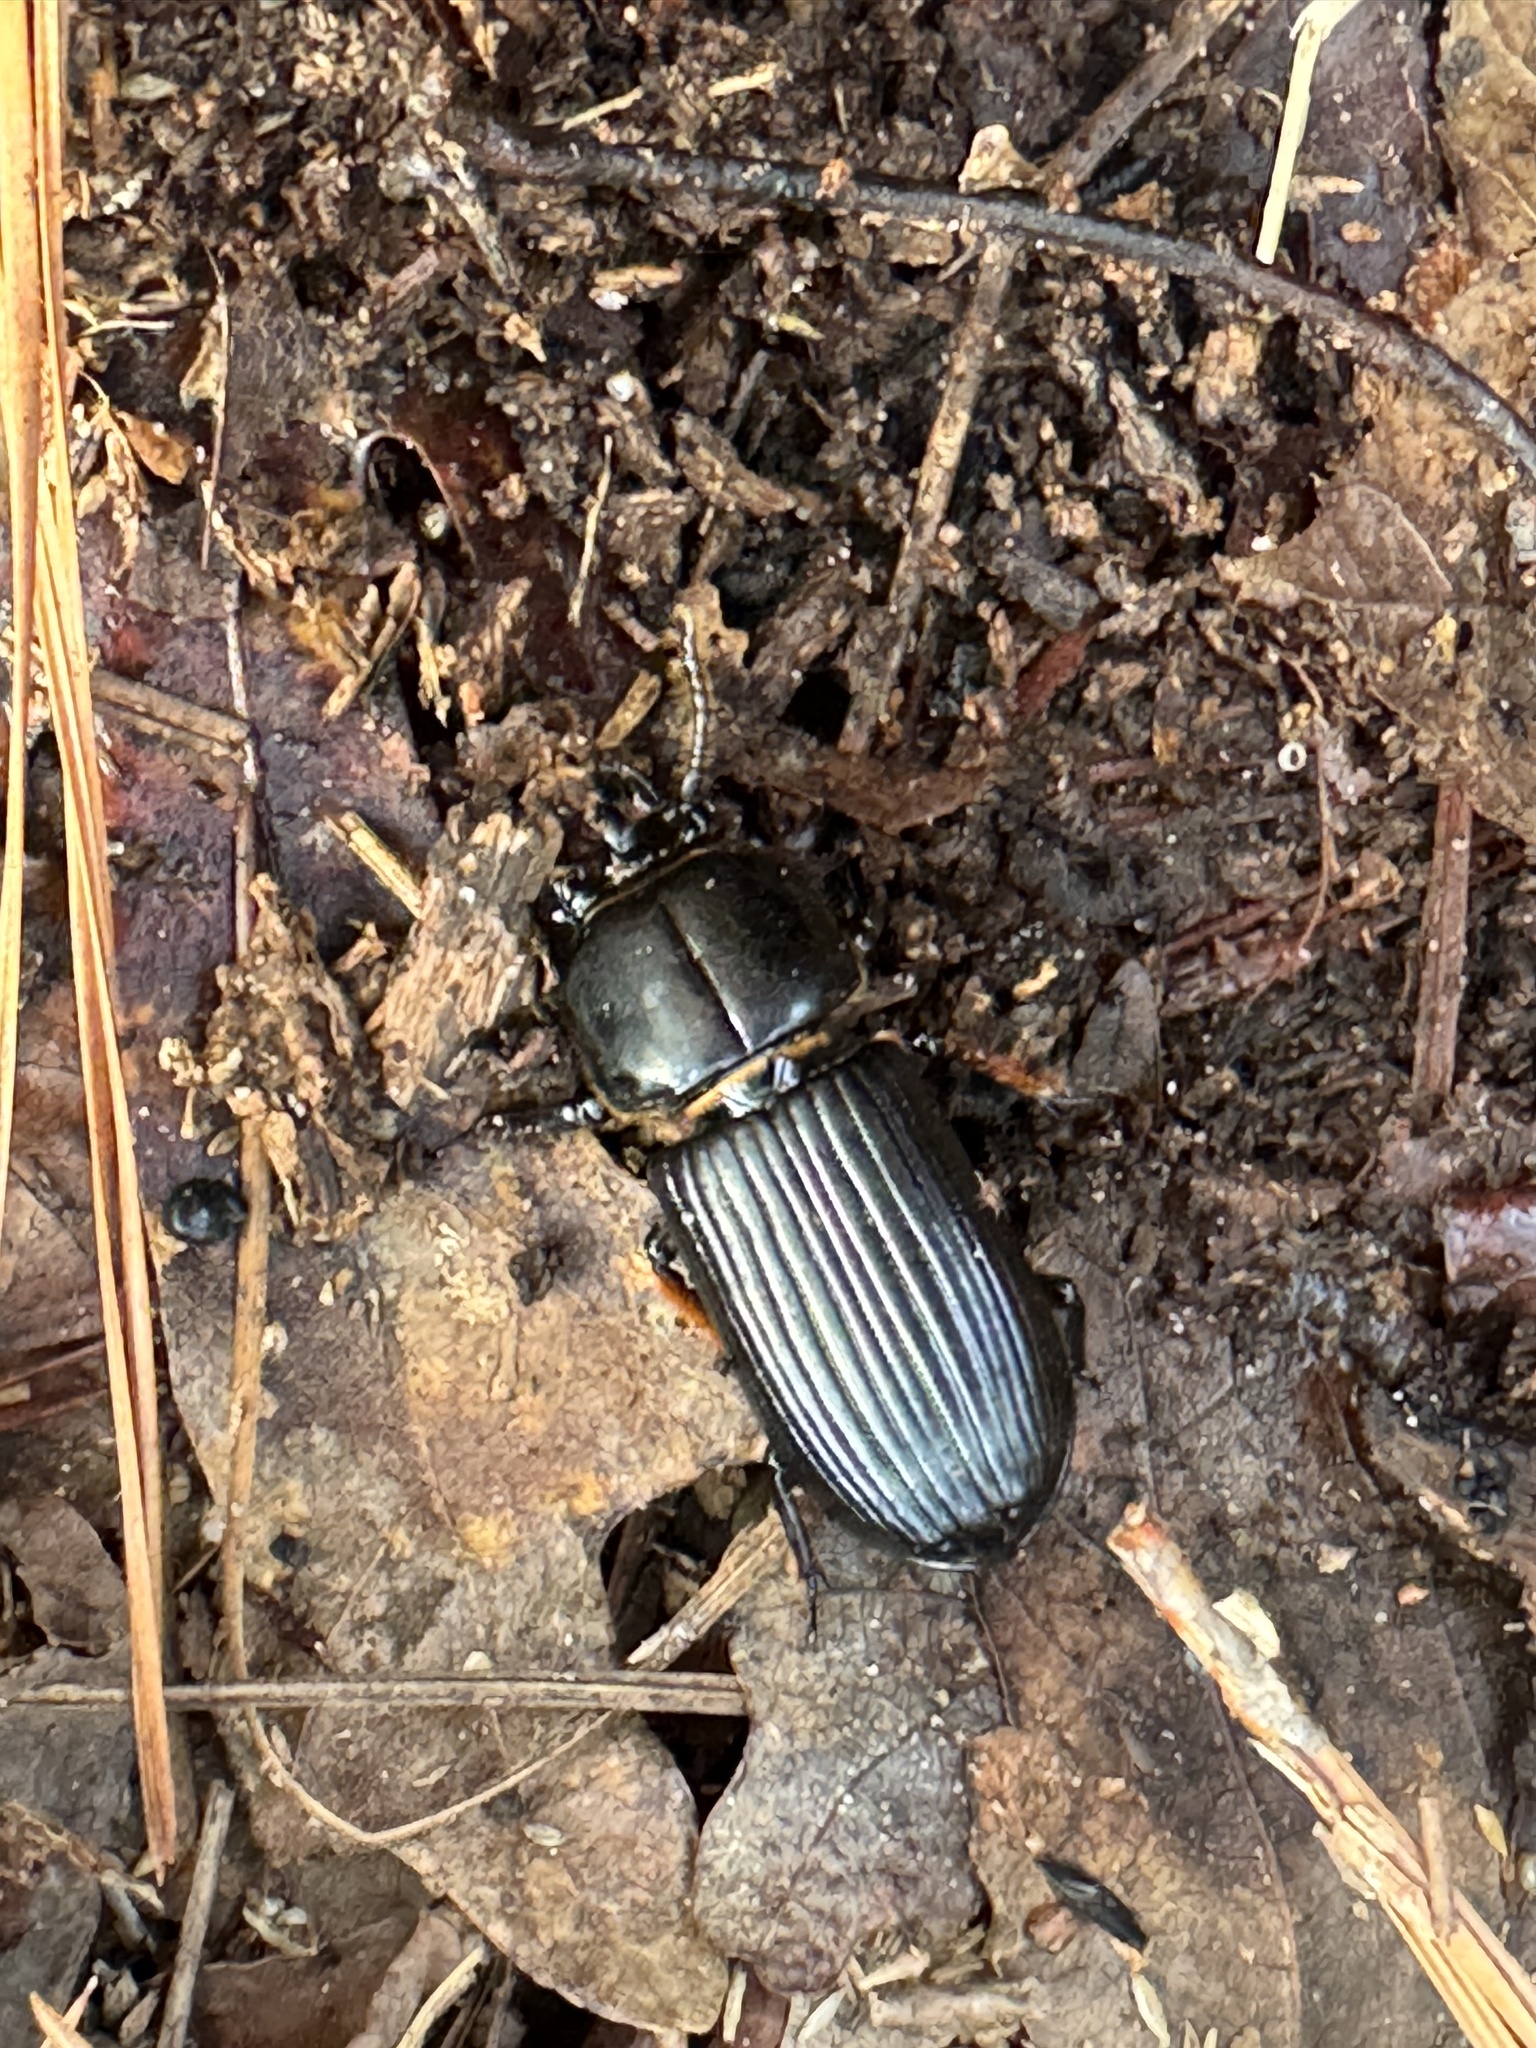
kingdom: Animalia
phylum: Arthropoda
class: Insecta
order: Coleoptera
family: Passalidae
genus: Odontotaenius
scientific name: Odontotaenius disjunctus
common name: Patent leather beetle
